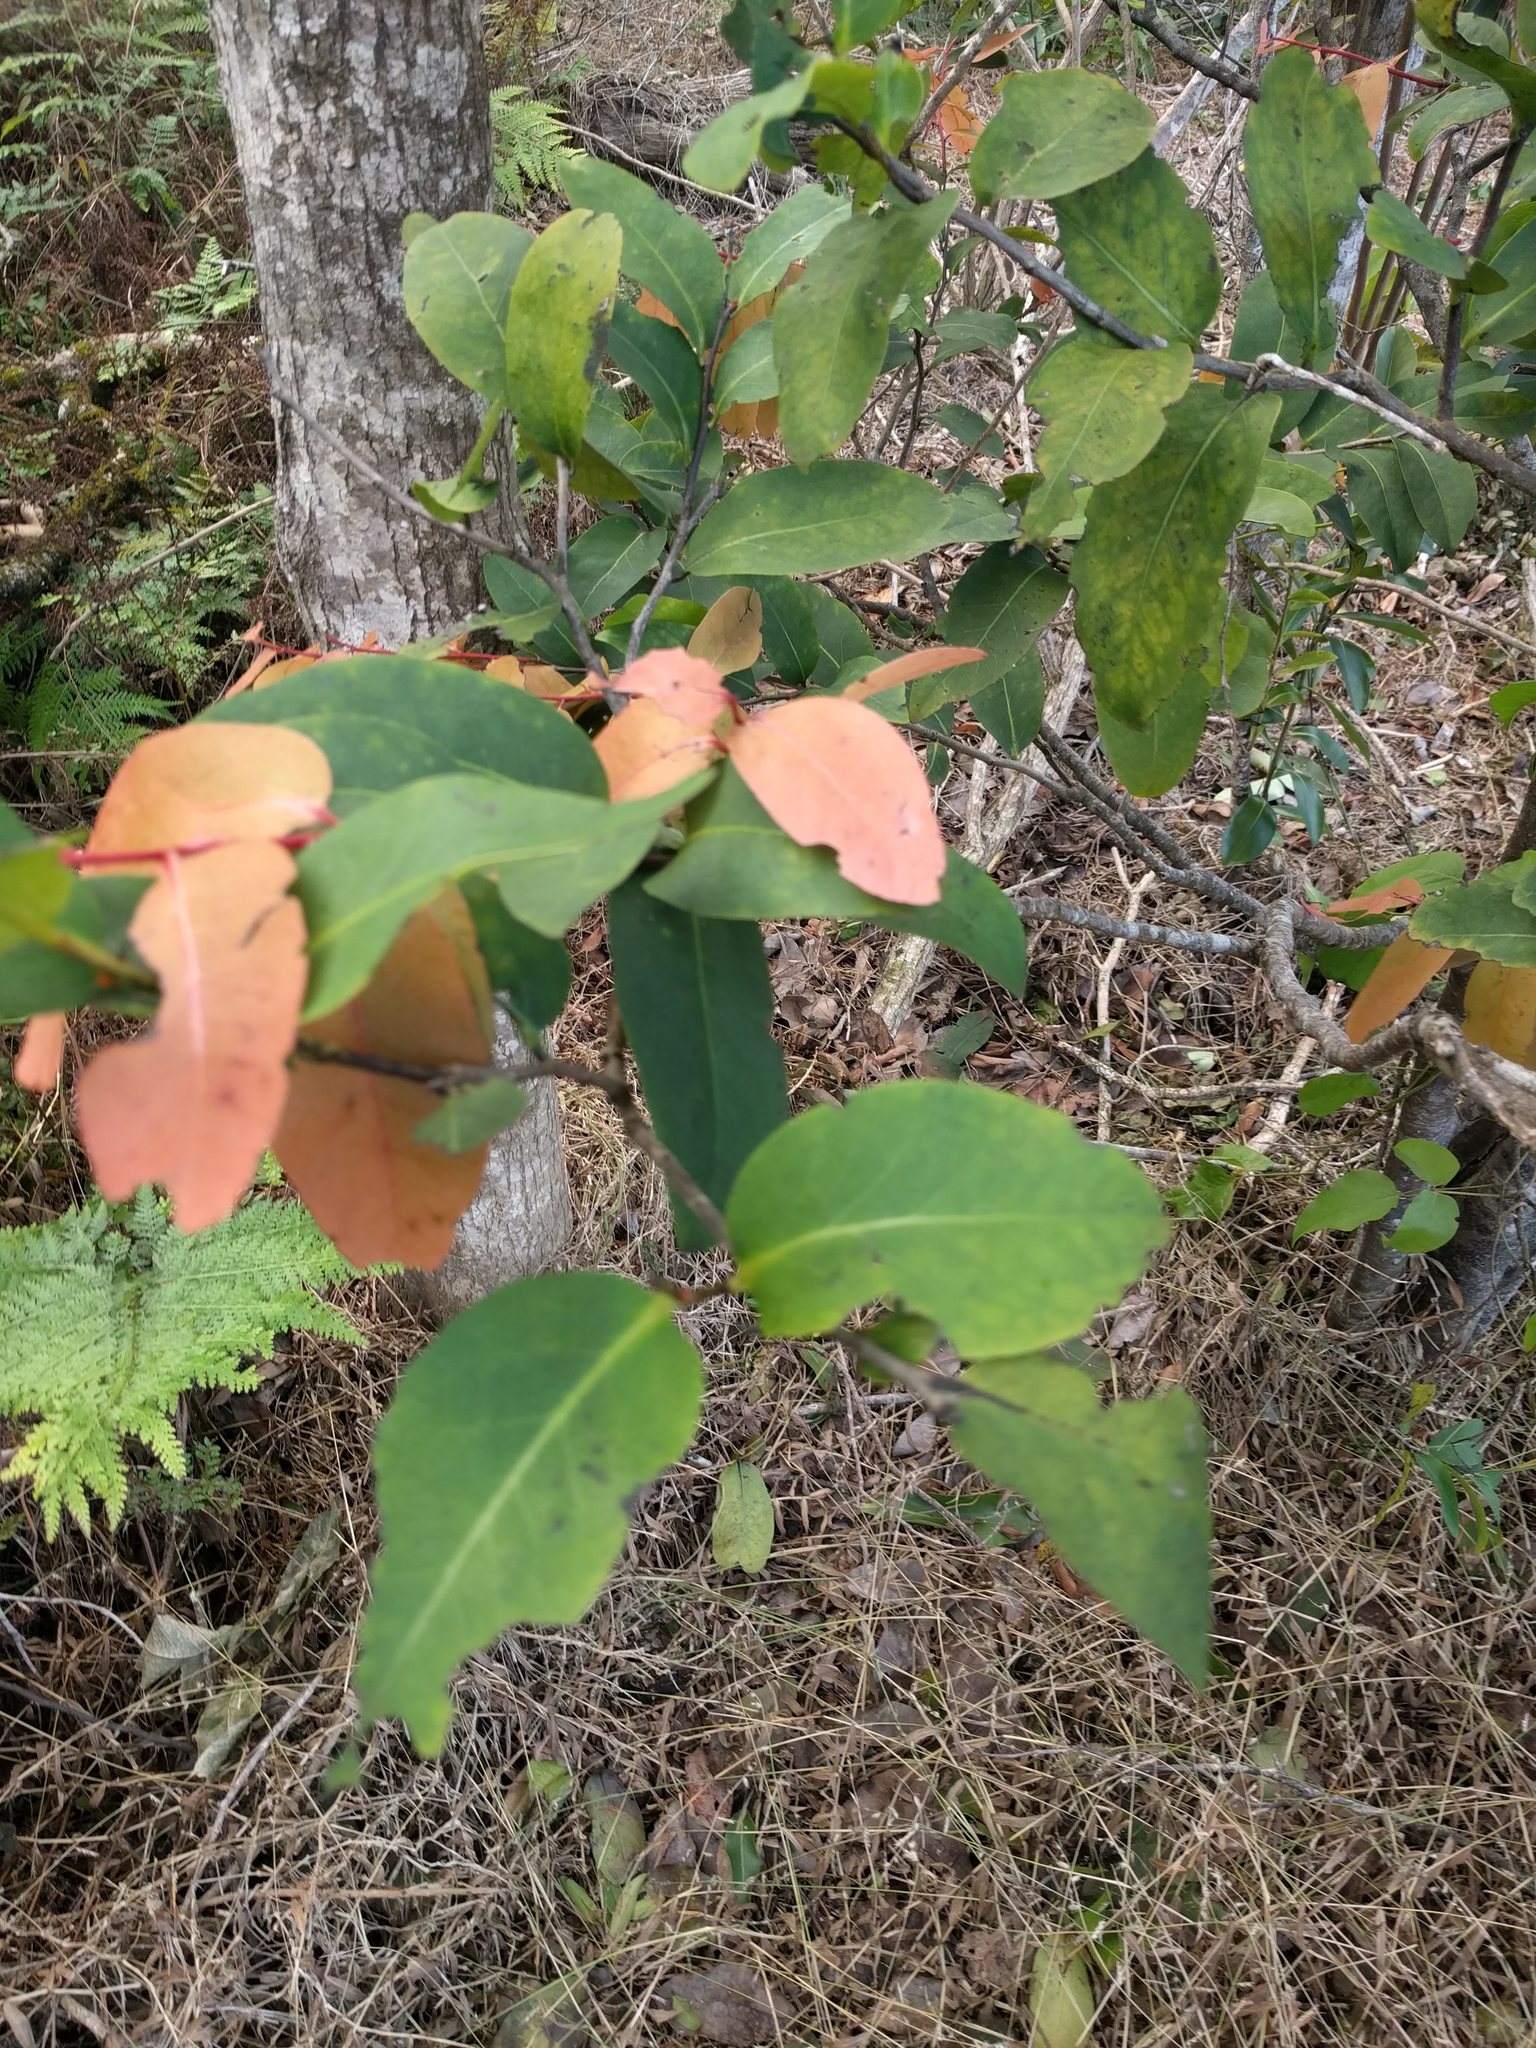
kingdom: Plantae
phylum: Tracheophyta
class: Magnoliopsida
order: Ericales
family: Ebenaceae
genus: Diospyros
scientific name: Diospyros hillebrandii
